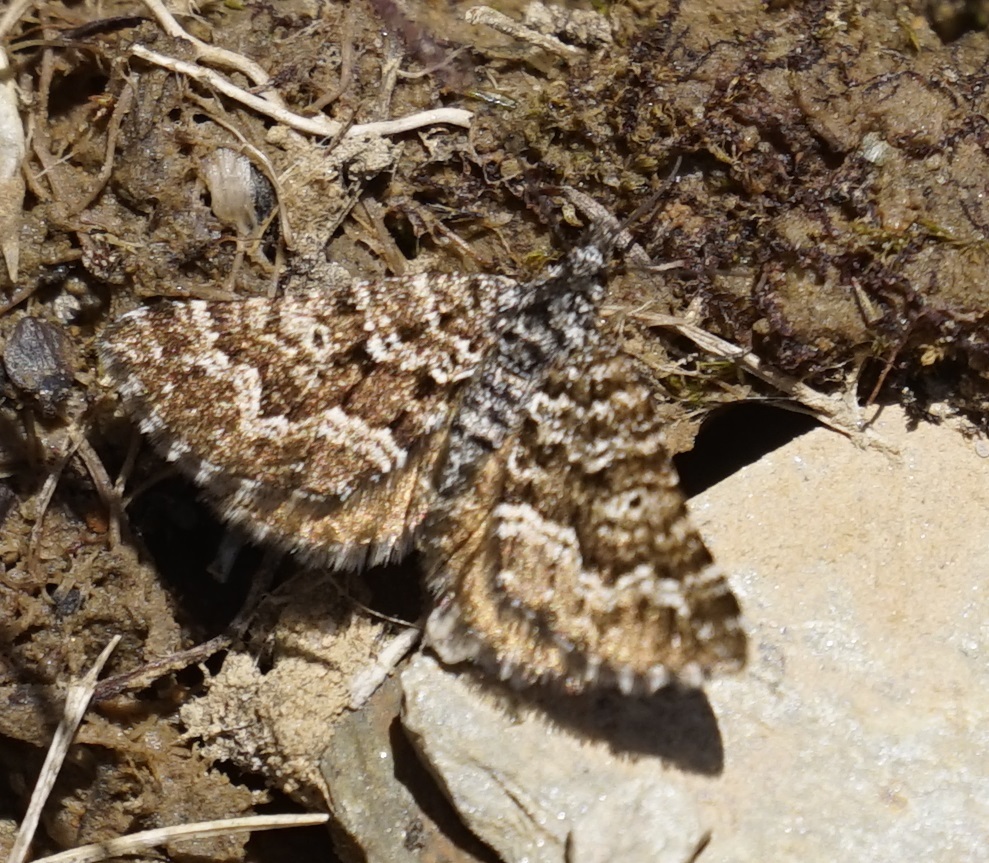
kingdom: Animalia
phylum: Arthropoda
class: Insecta
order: Lepidoptera
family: Geometridae
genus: Chrysolarentia
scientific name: Chrysolarentia phaeoxutha
